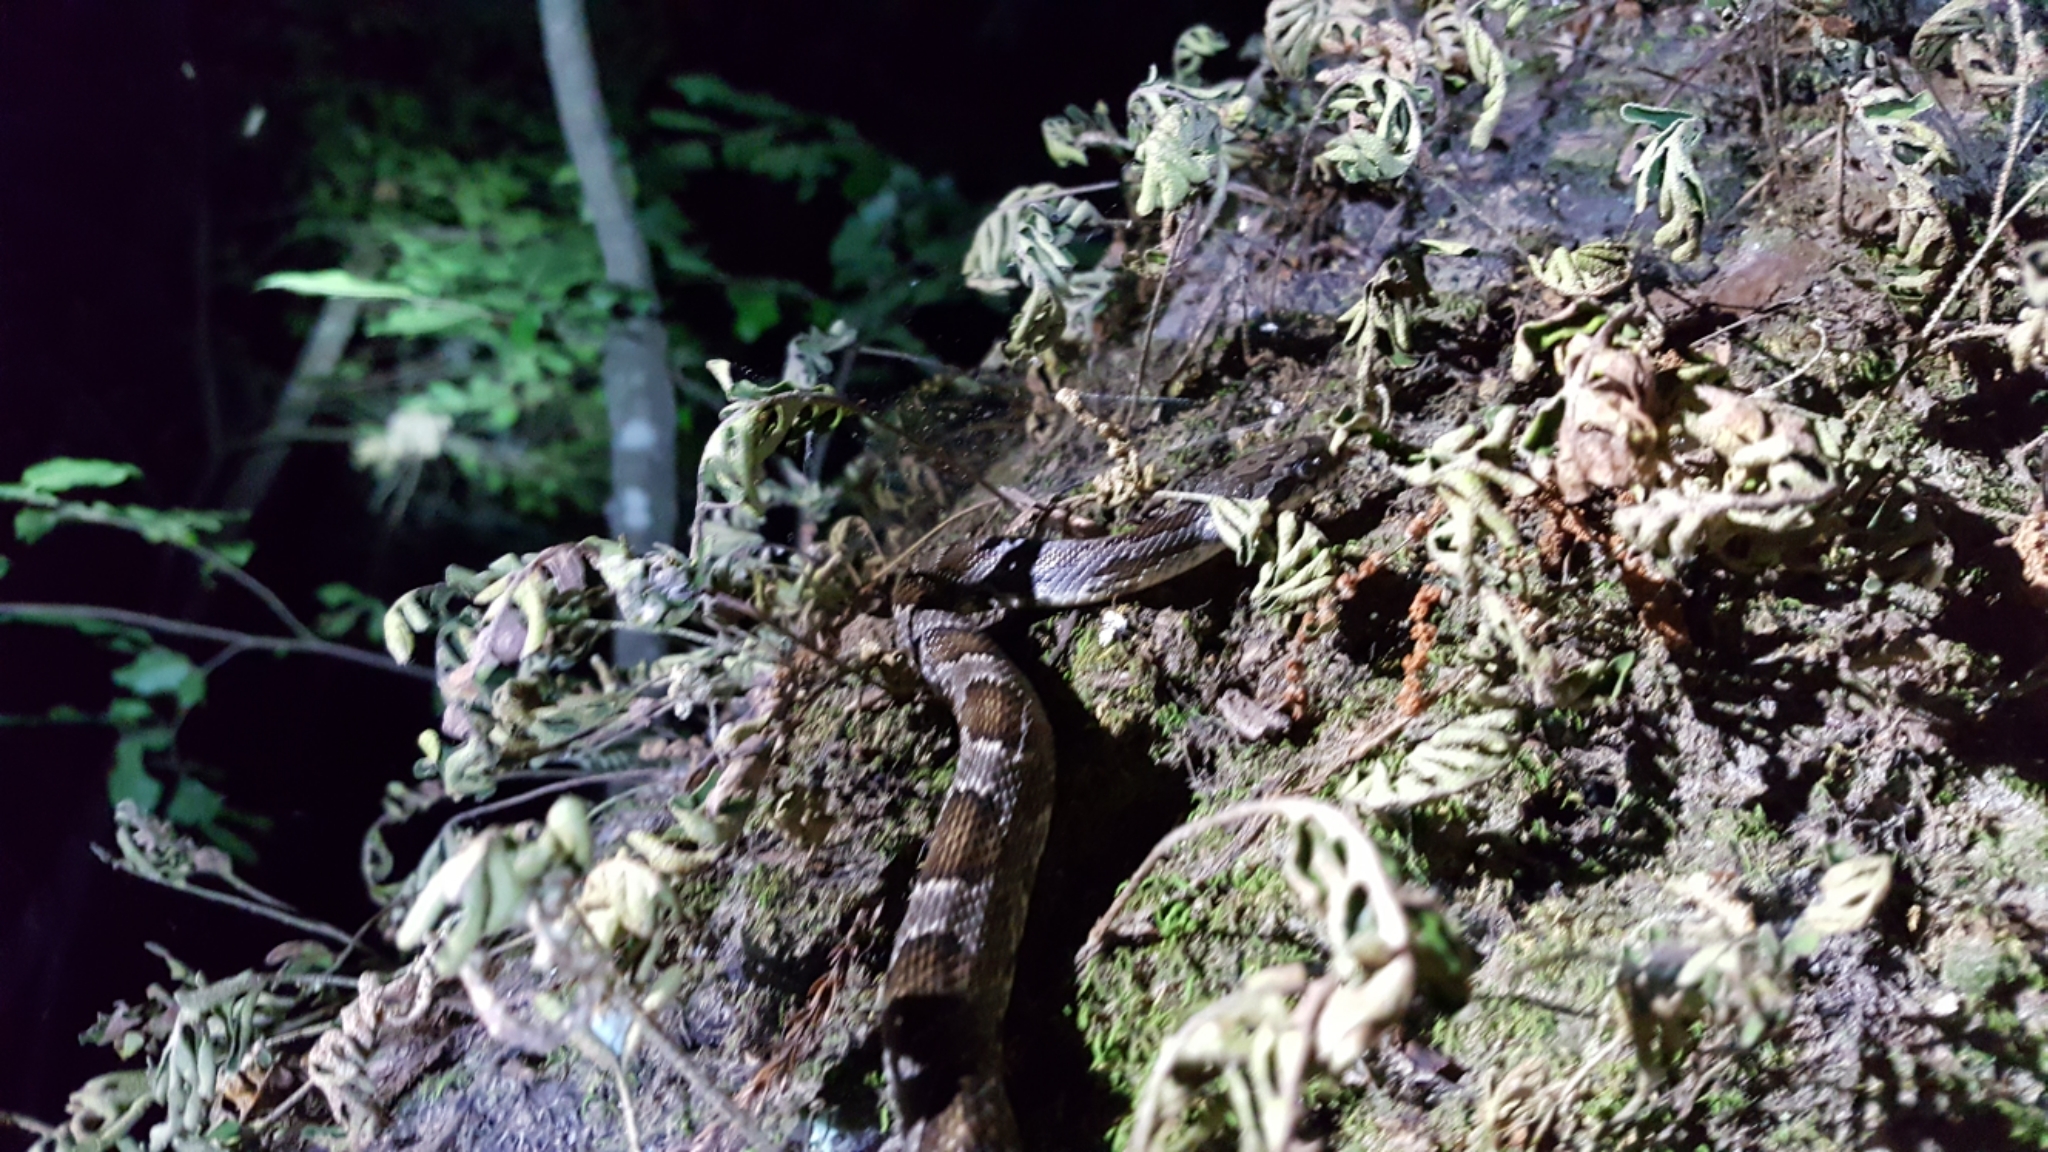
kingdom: Animalia
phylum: Chordata
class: Squamata
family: Colubridae
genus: Pantherophis
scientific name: Pantherophis obsoletus
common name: Black rat snake
